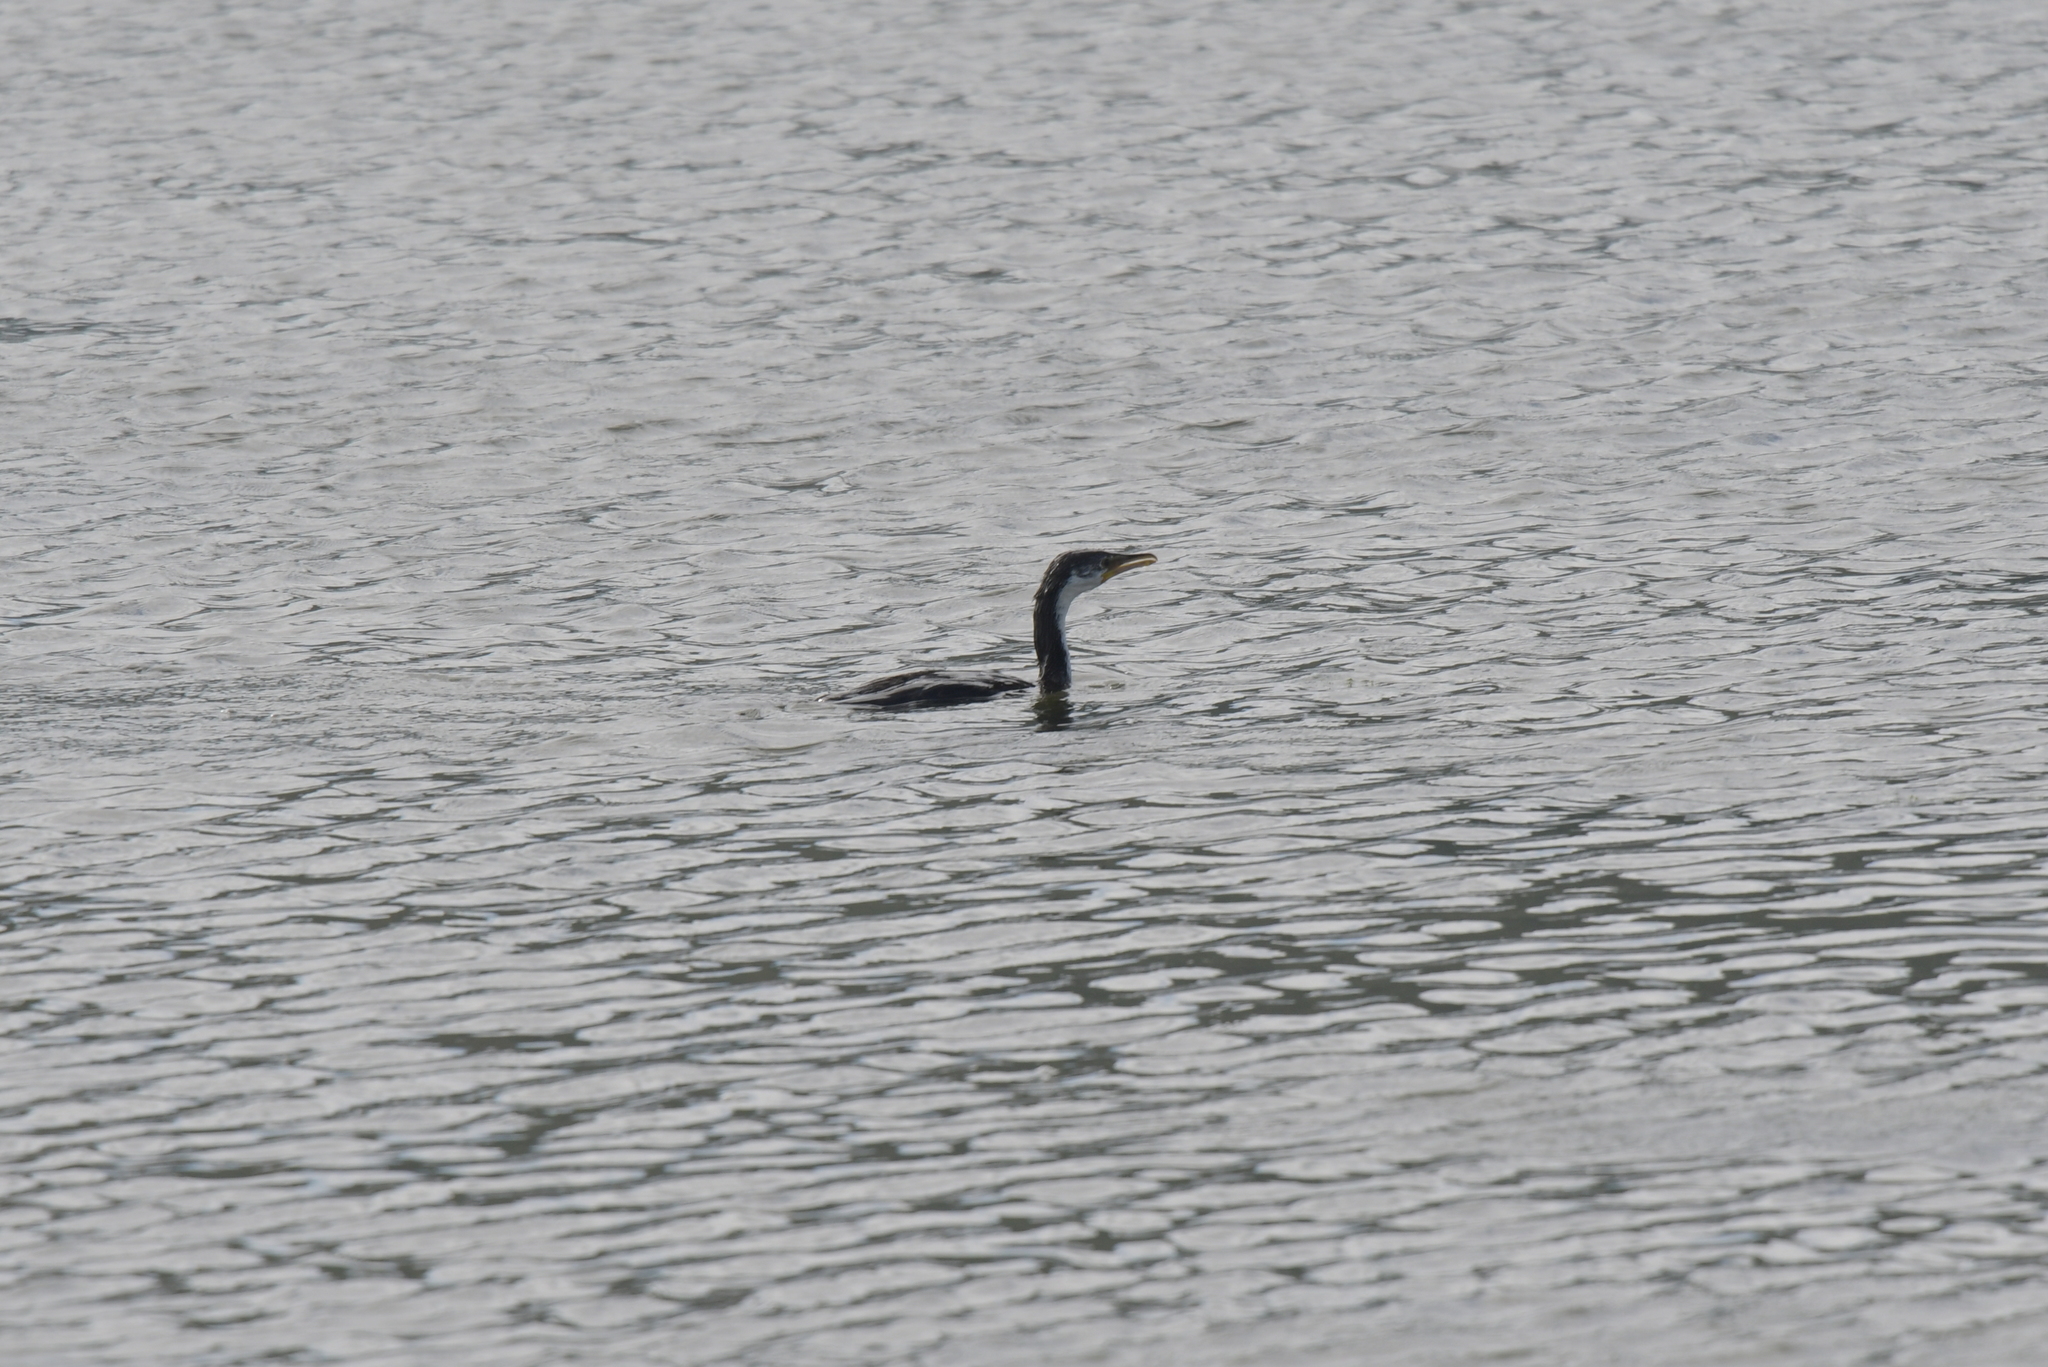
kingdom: Animalia
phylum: Chordata
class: Aves
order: Suliformes
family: Phalacrocoracidae
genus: Microcarbo
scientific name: Microcarbo melanoleucos
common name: Little pied cormorant
